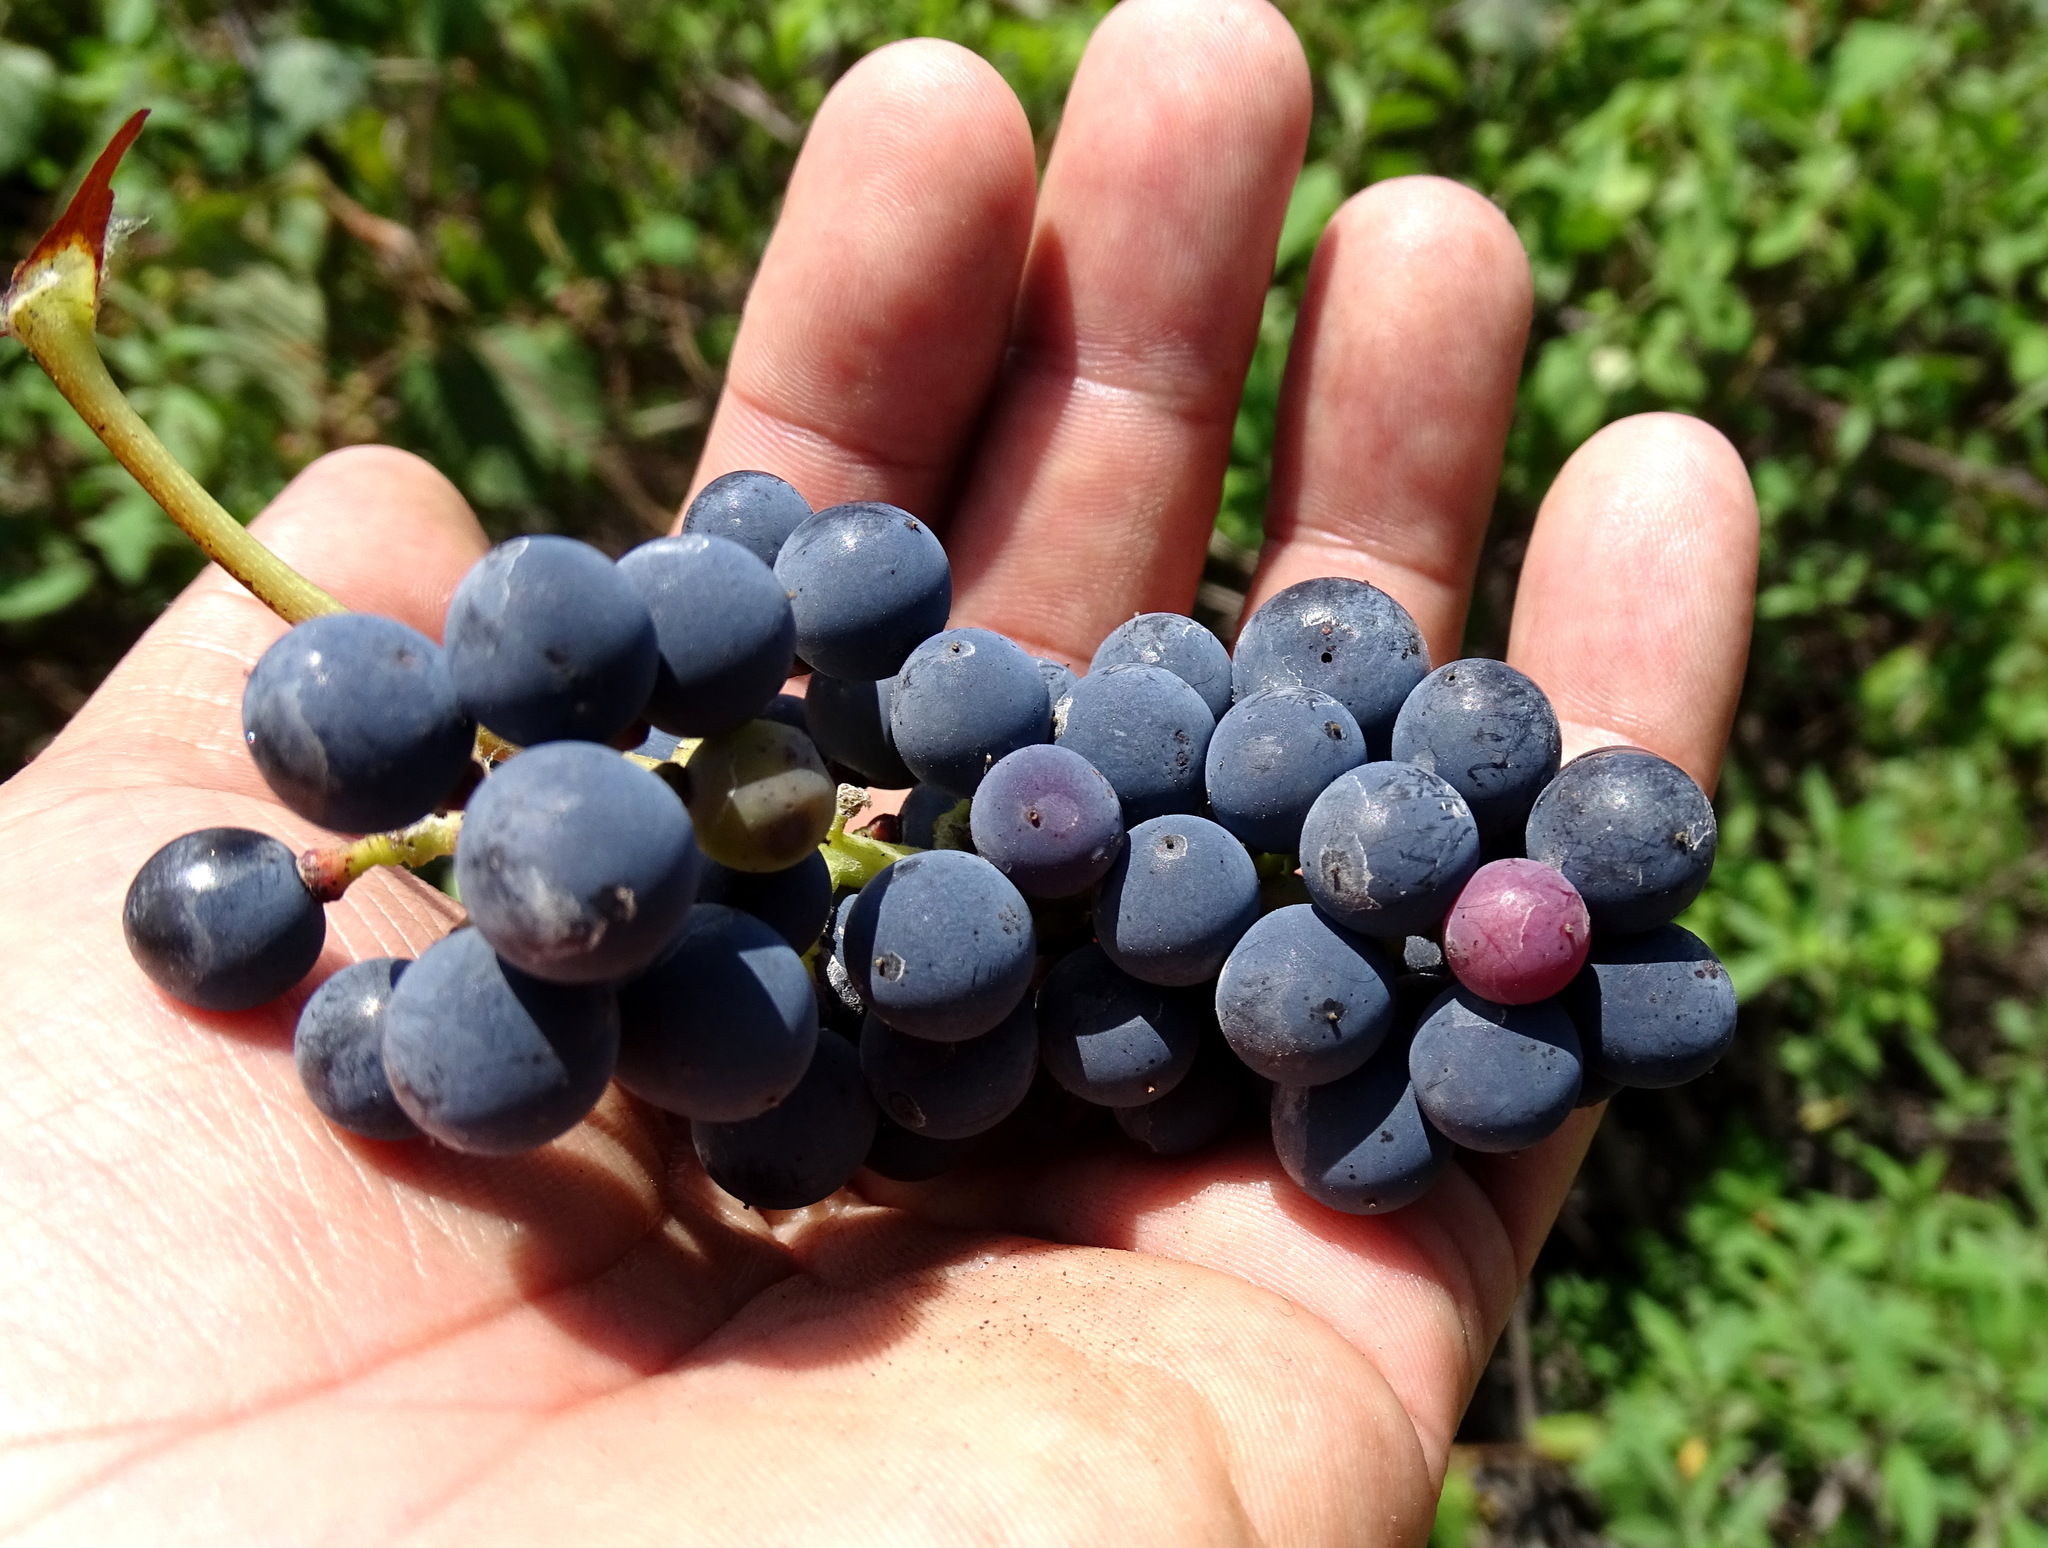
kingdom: Plantae
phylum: Tracheophyta
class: Magnoliopsida
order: Vitales
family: Vitaceae
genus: Vitis
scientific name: Vitis tiliifolia
